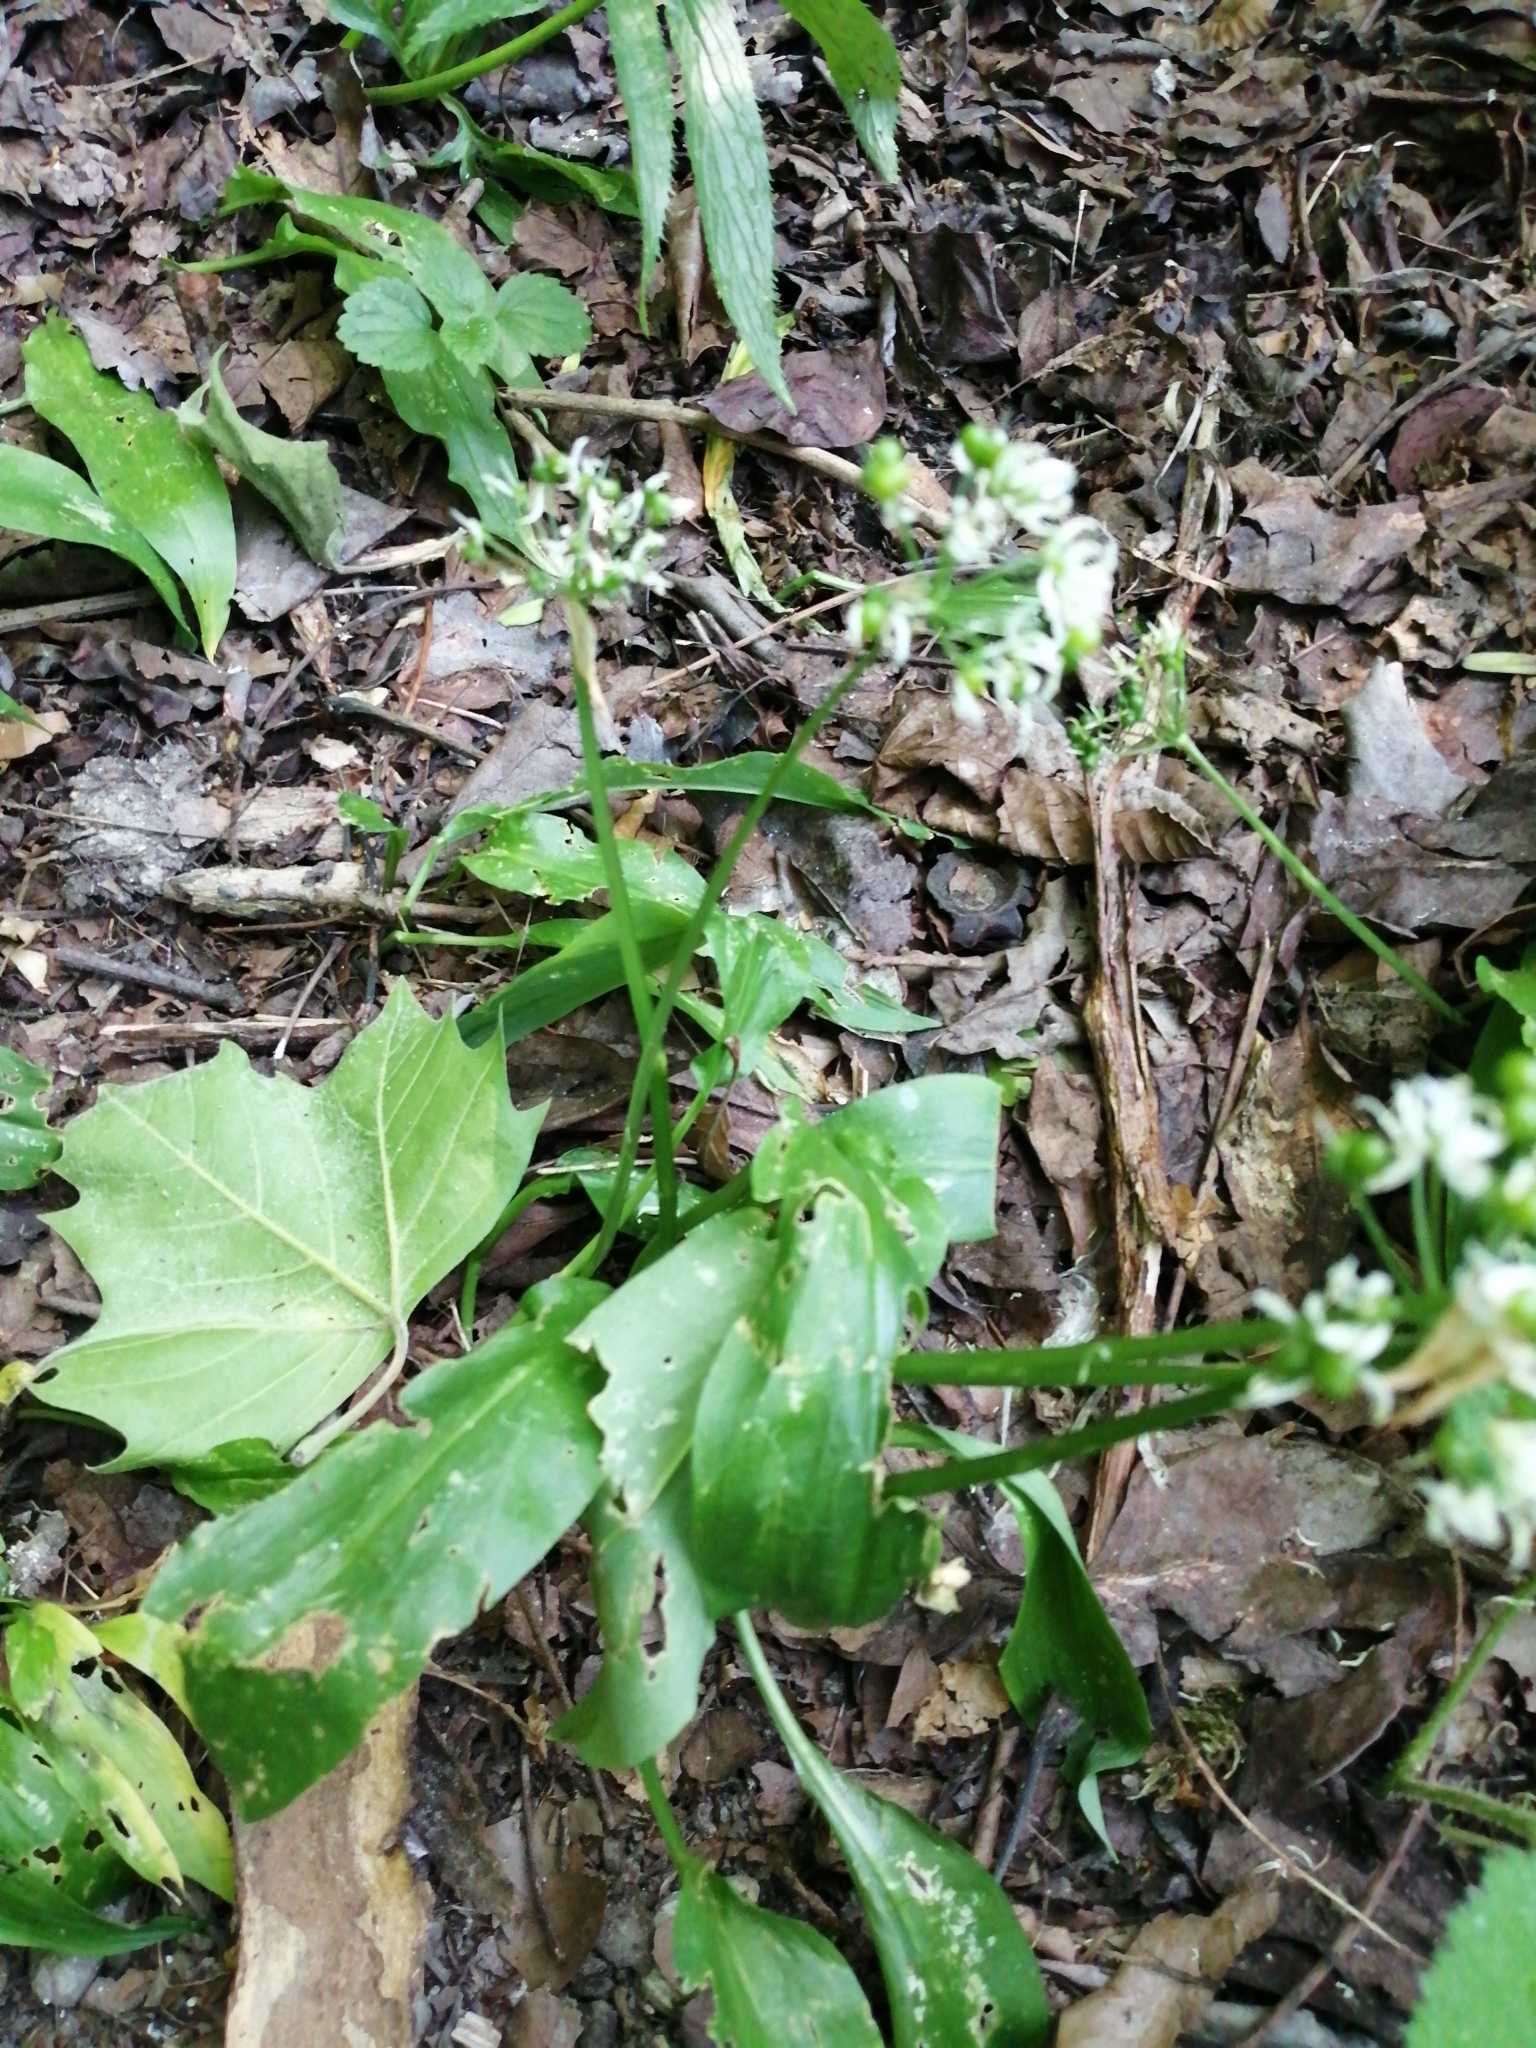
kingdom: Plantae
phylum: Tracheophyta
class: Liliopsida
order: Asparagales
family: Amaryllidaceae
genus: Allium
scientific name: Allium ursinum
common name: Ramsons
